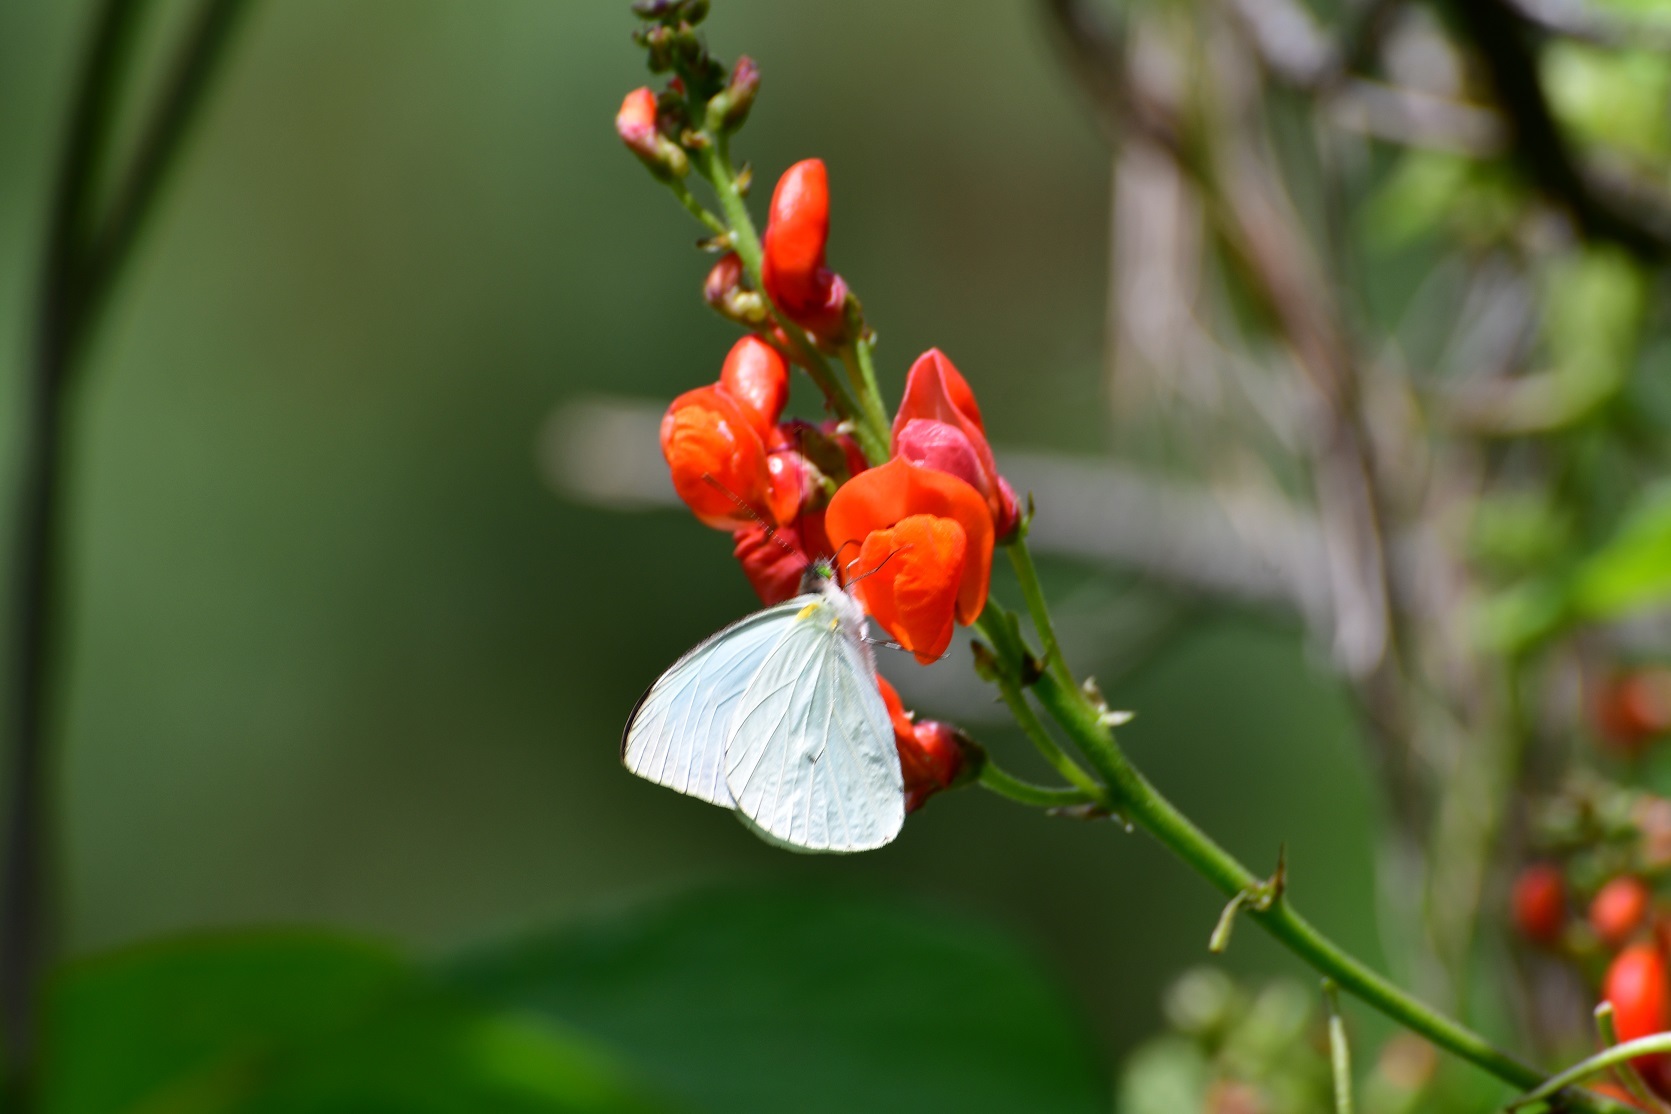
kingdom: Animalia
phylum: Arthropoda
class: Insecta
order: Lepidoptera
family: Pieridae
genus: Leptophobia
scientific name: Leptophobia aripa
